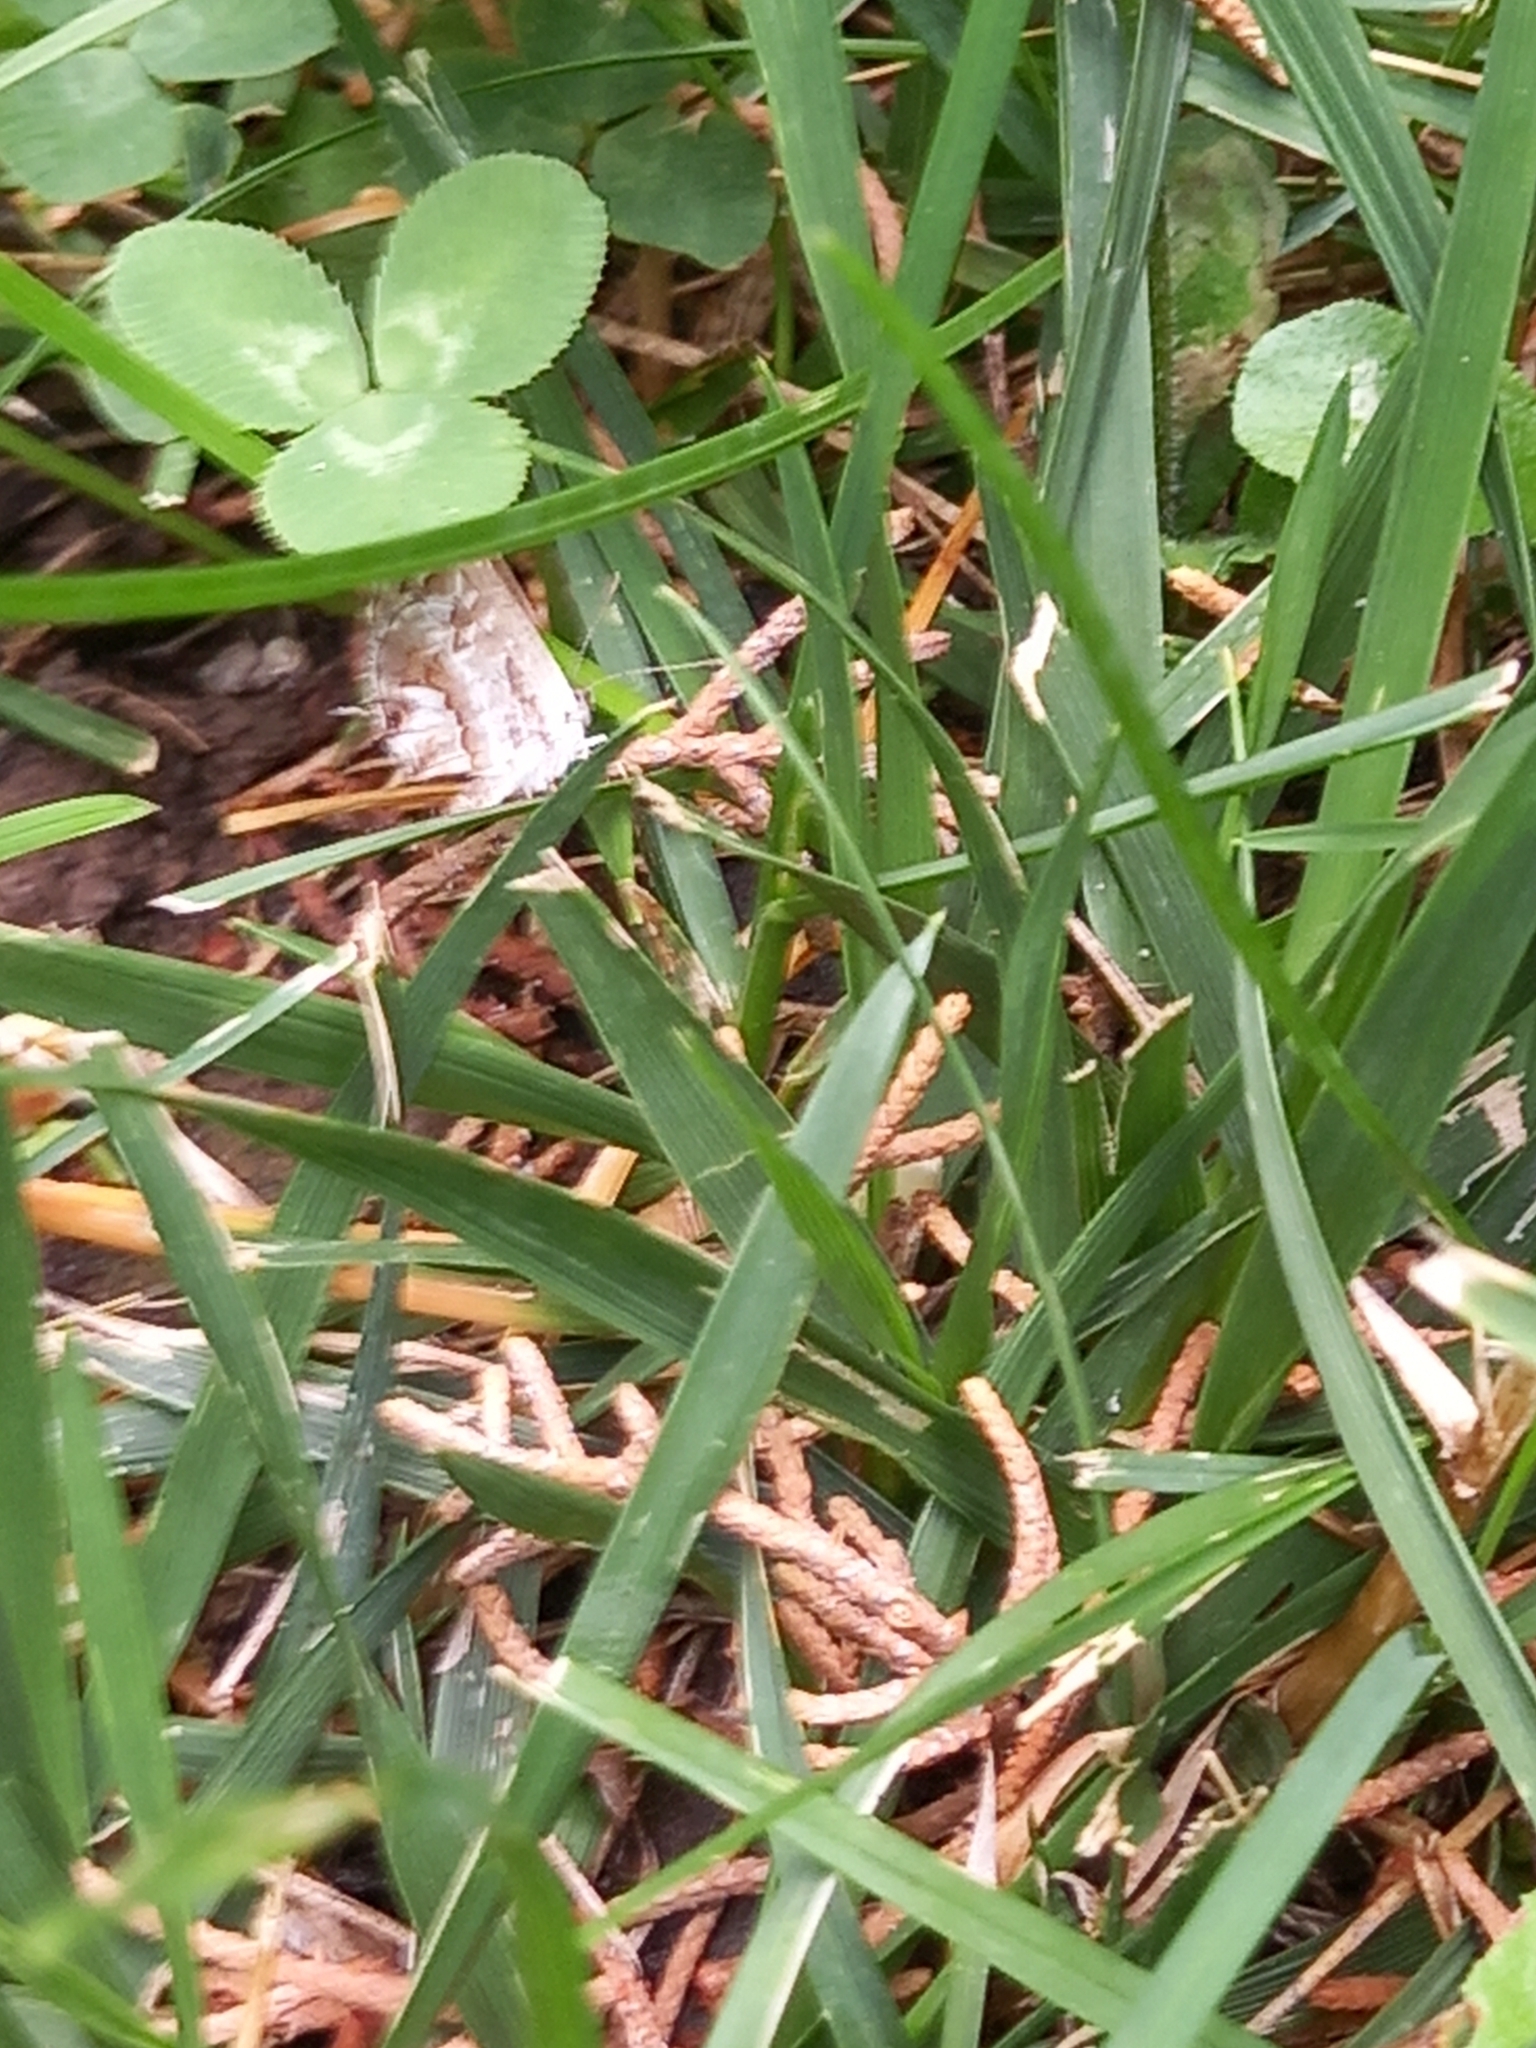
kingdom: Animalia
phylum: Arthropoda
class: Insecta
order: Lepidoptera
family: Lycaenidae
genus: Cacyreus
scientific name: Cacyreus marshalli
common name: Geranium bronze
